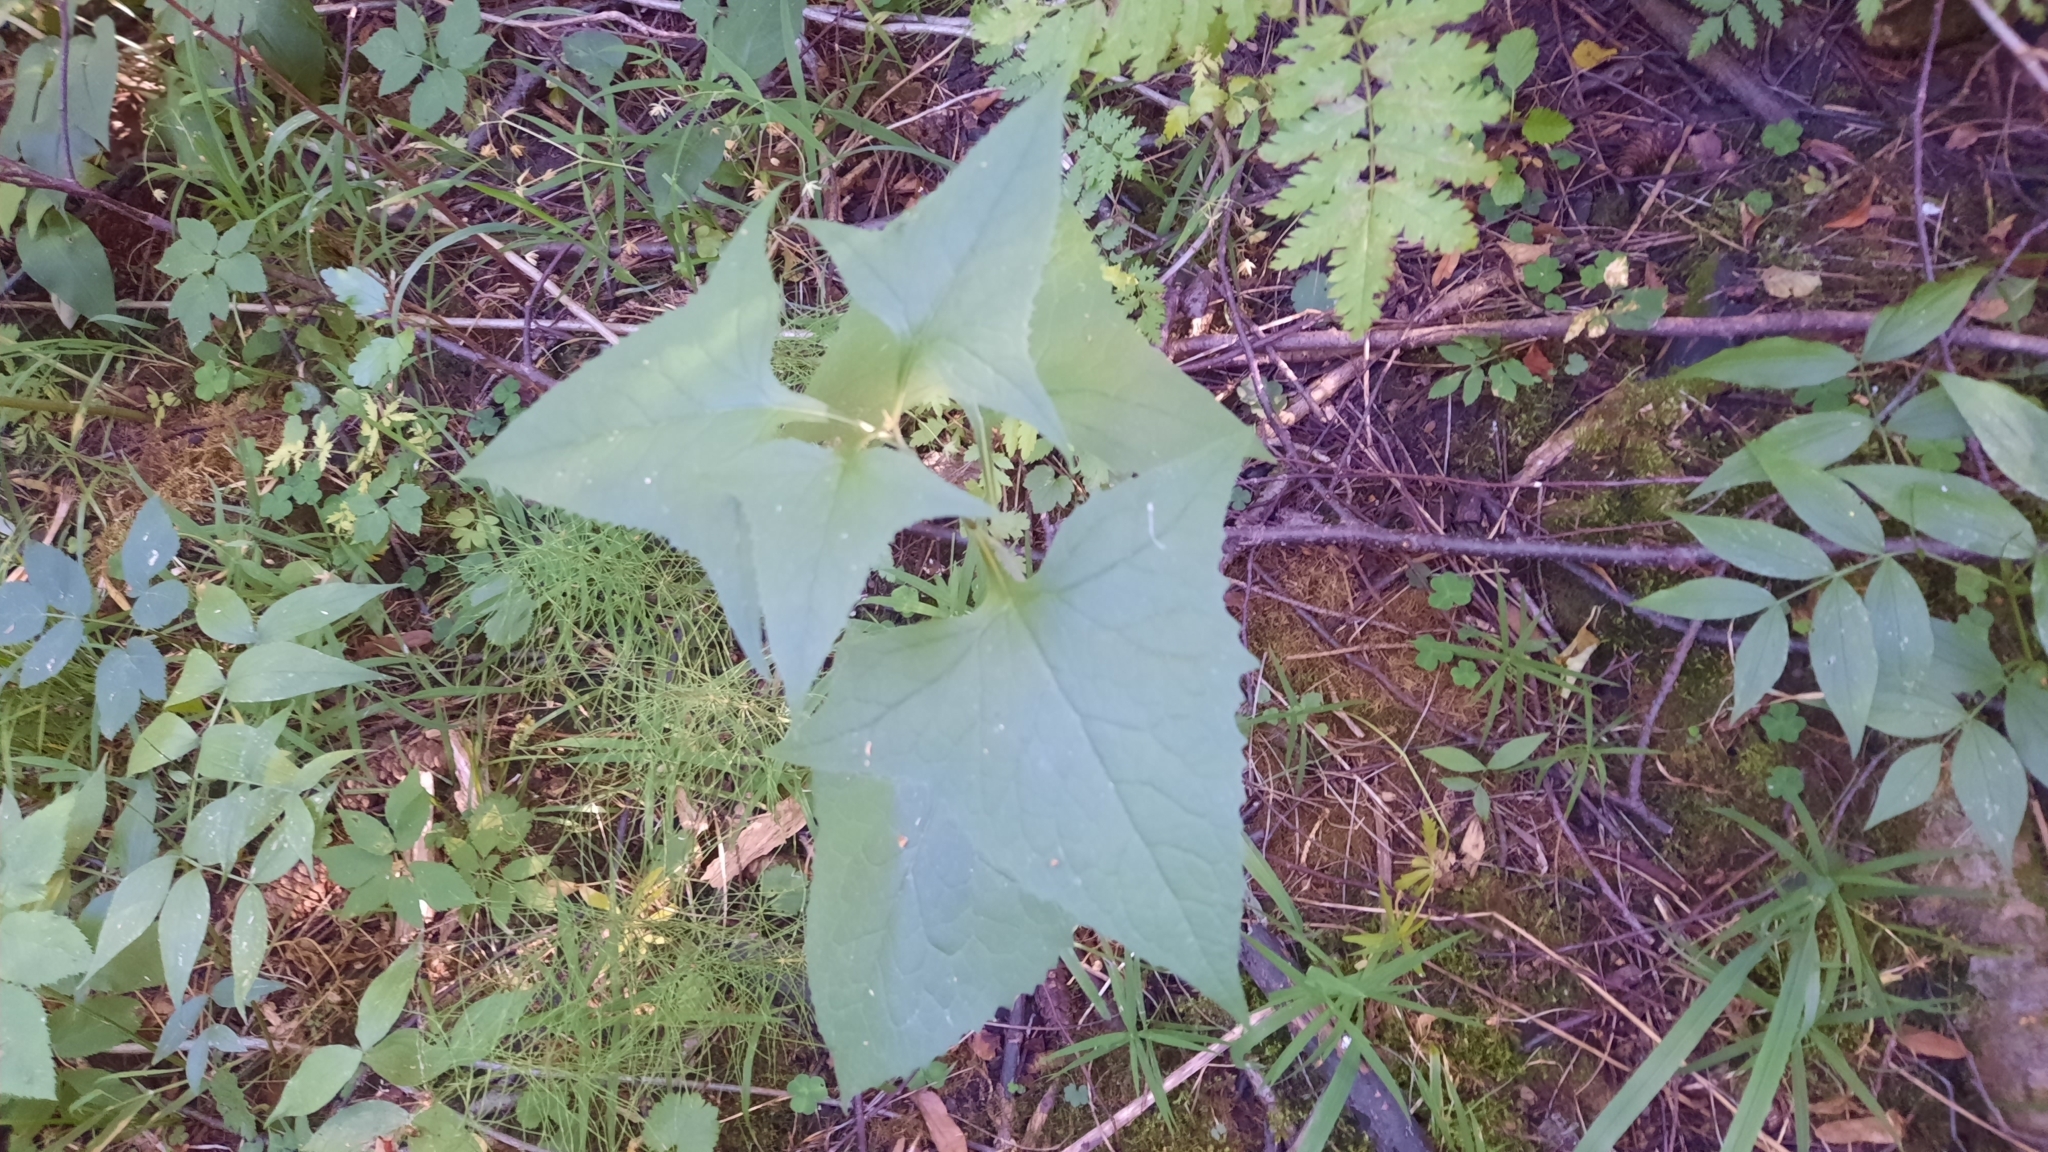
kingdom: Plantae
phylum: Tracheophyta
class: Magnoliopsida
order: Asterales
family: Asteraceae
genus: Parasenecio
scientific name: Parasenecio hastatus
